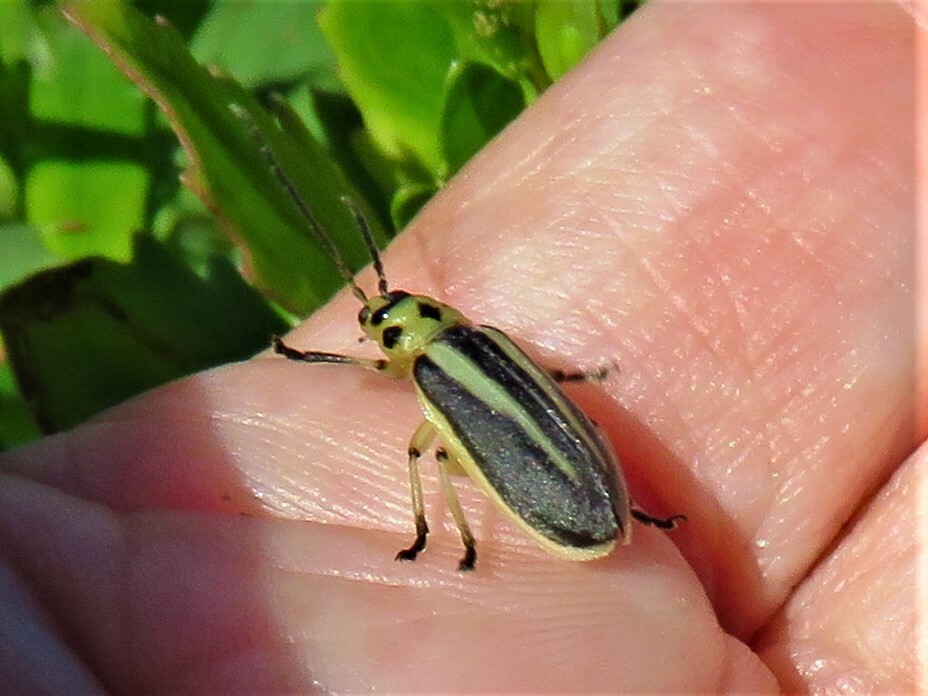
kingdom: Animalia
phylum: Arthropoda
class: Insecta
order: Coleoptera
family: Chrysomelidae
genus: Trirhabda
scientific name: Trirhabda bacharidis
